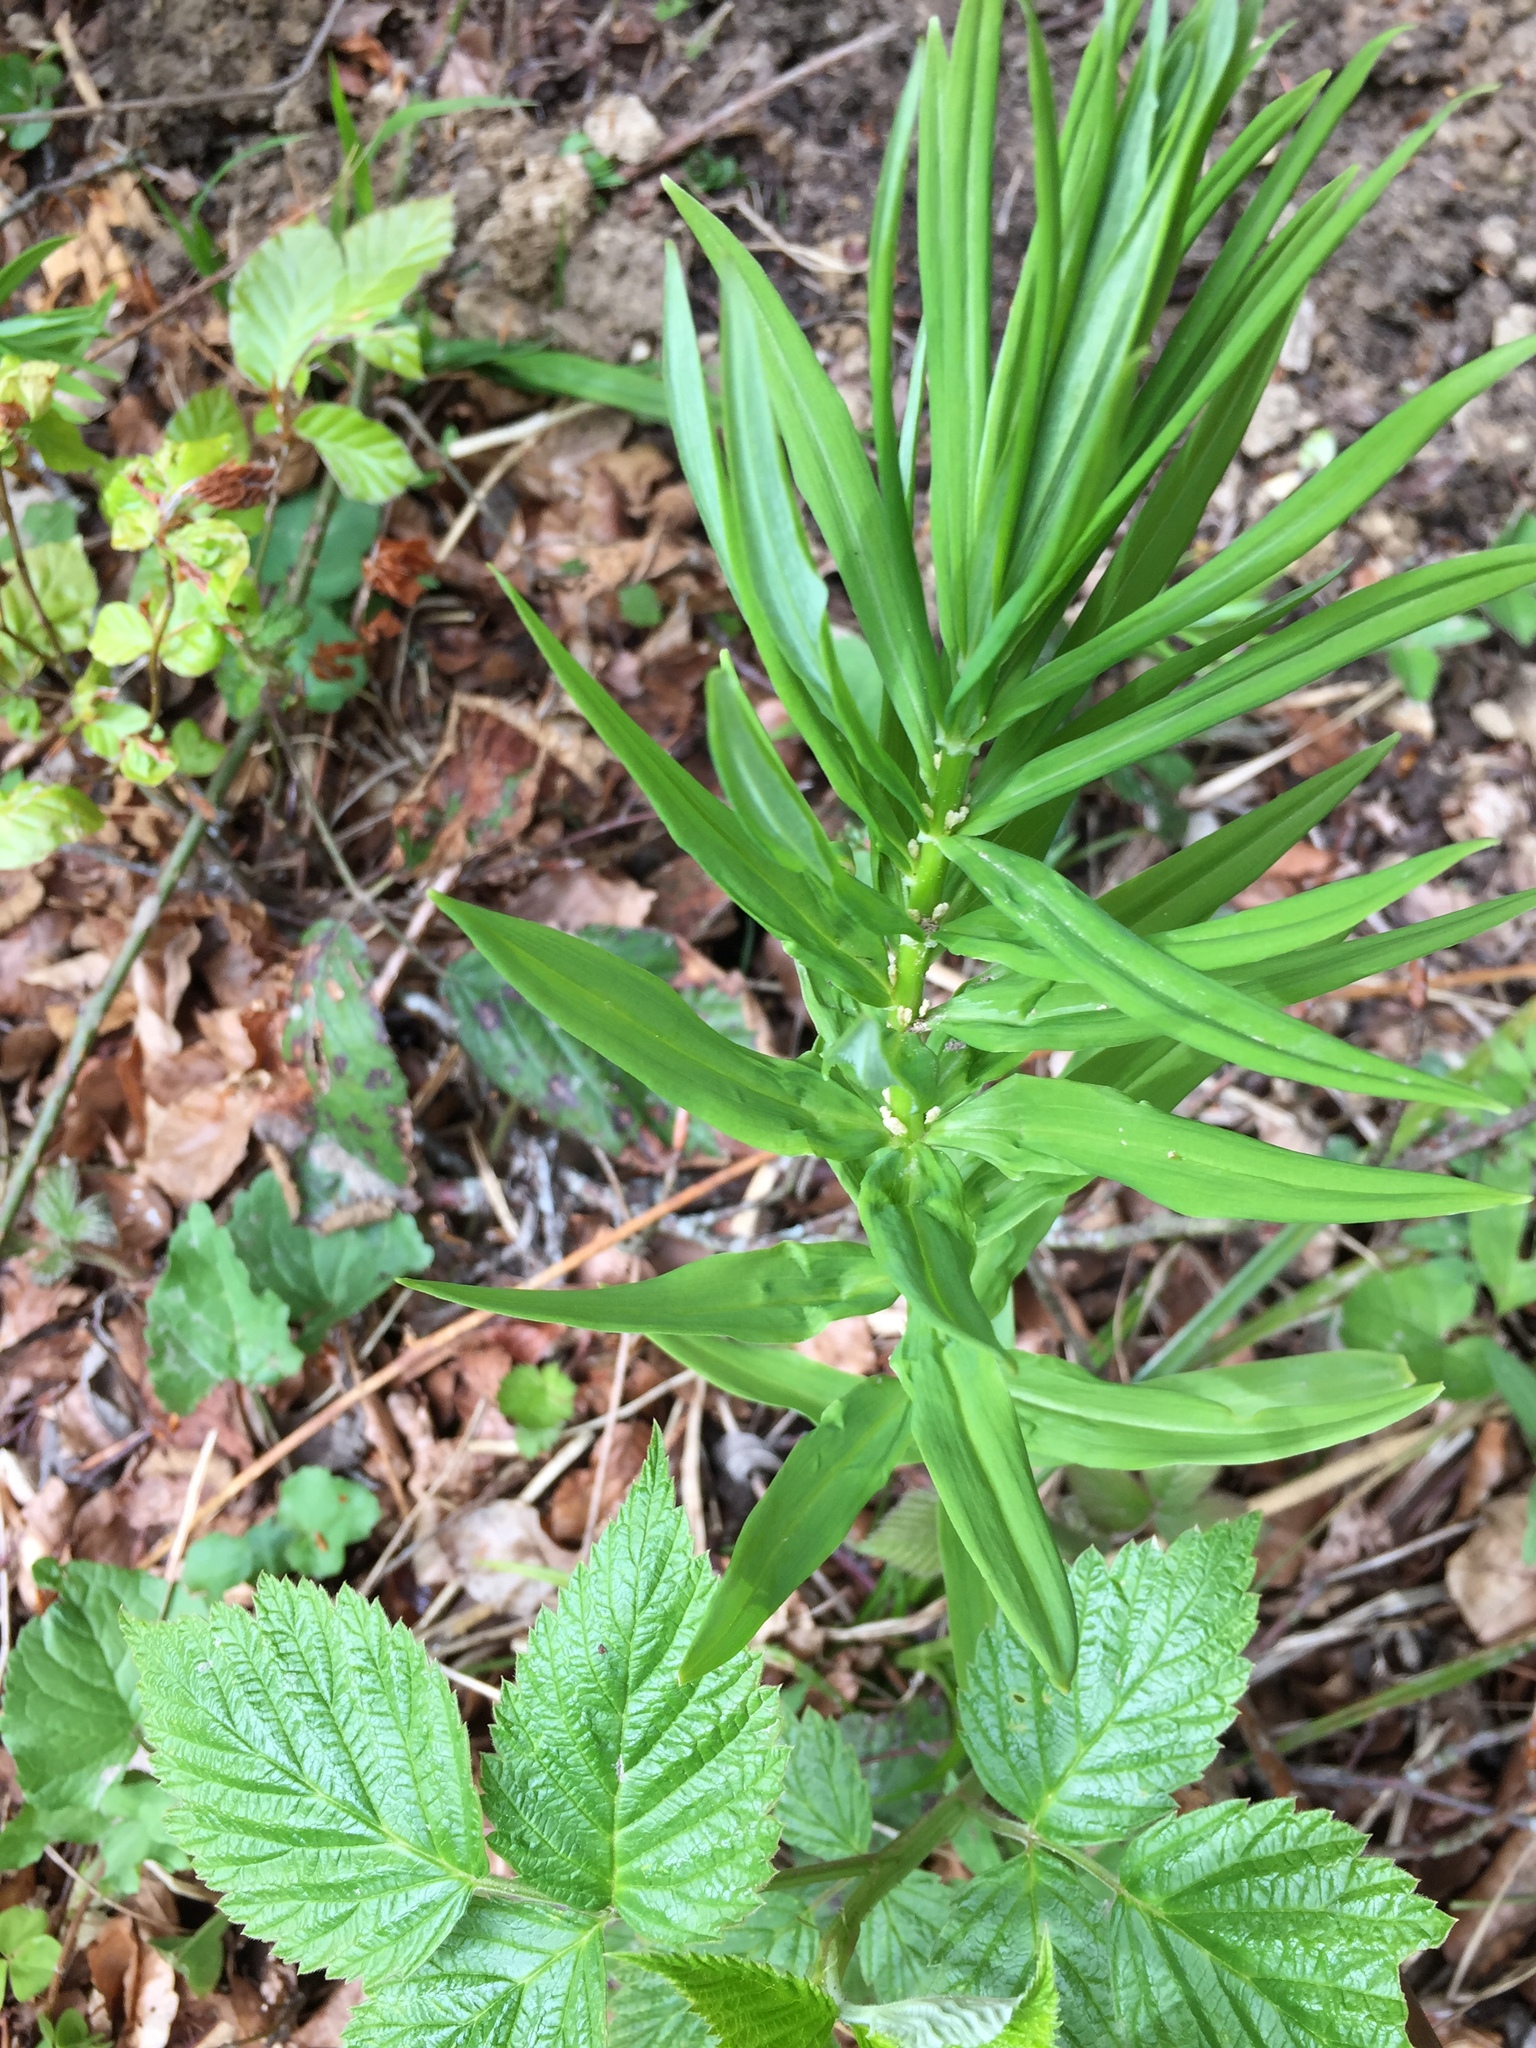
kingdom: Plantae
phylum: Tracheophyta
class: Liliopsida
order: Asparagales
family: Asparagaceae
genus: Polygonatum
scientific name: Polygonatum verticillatum
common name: Whorled solomon's-seal
